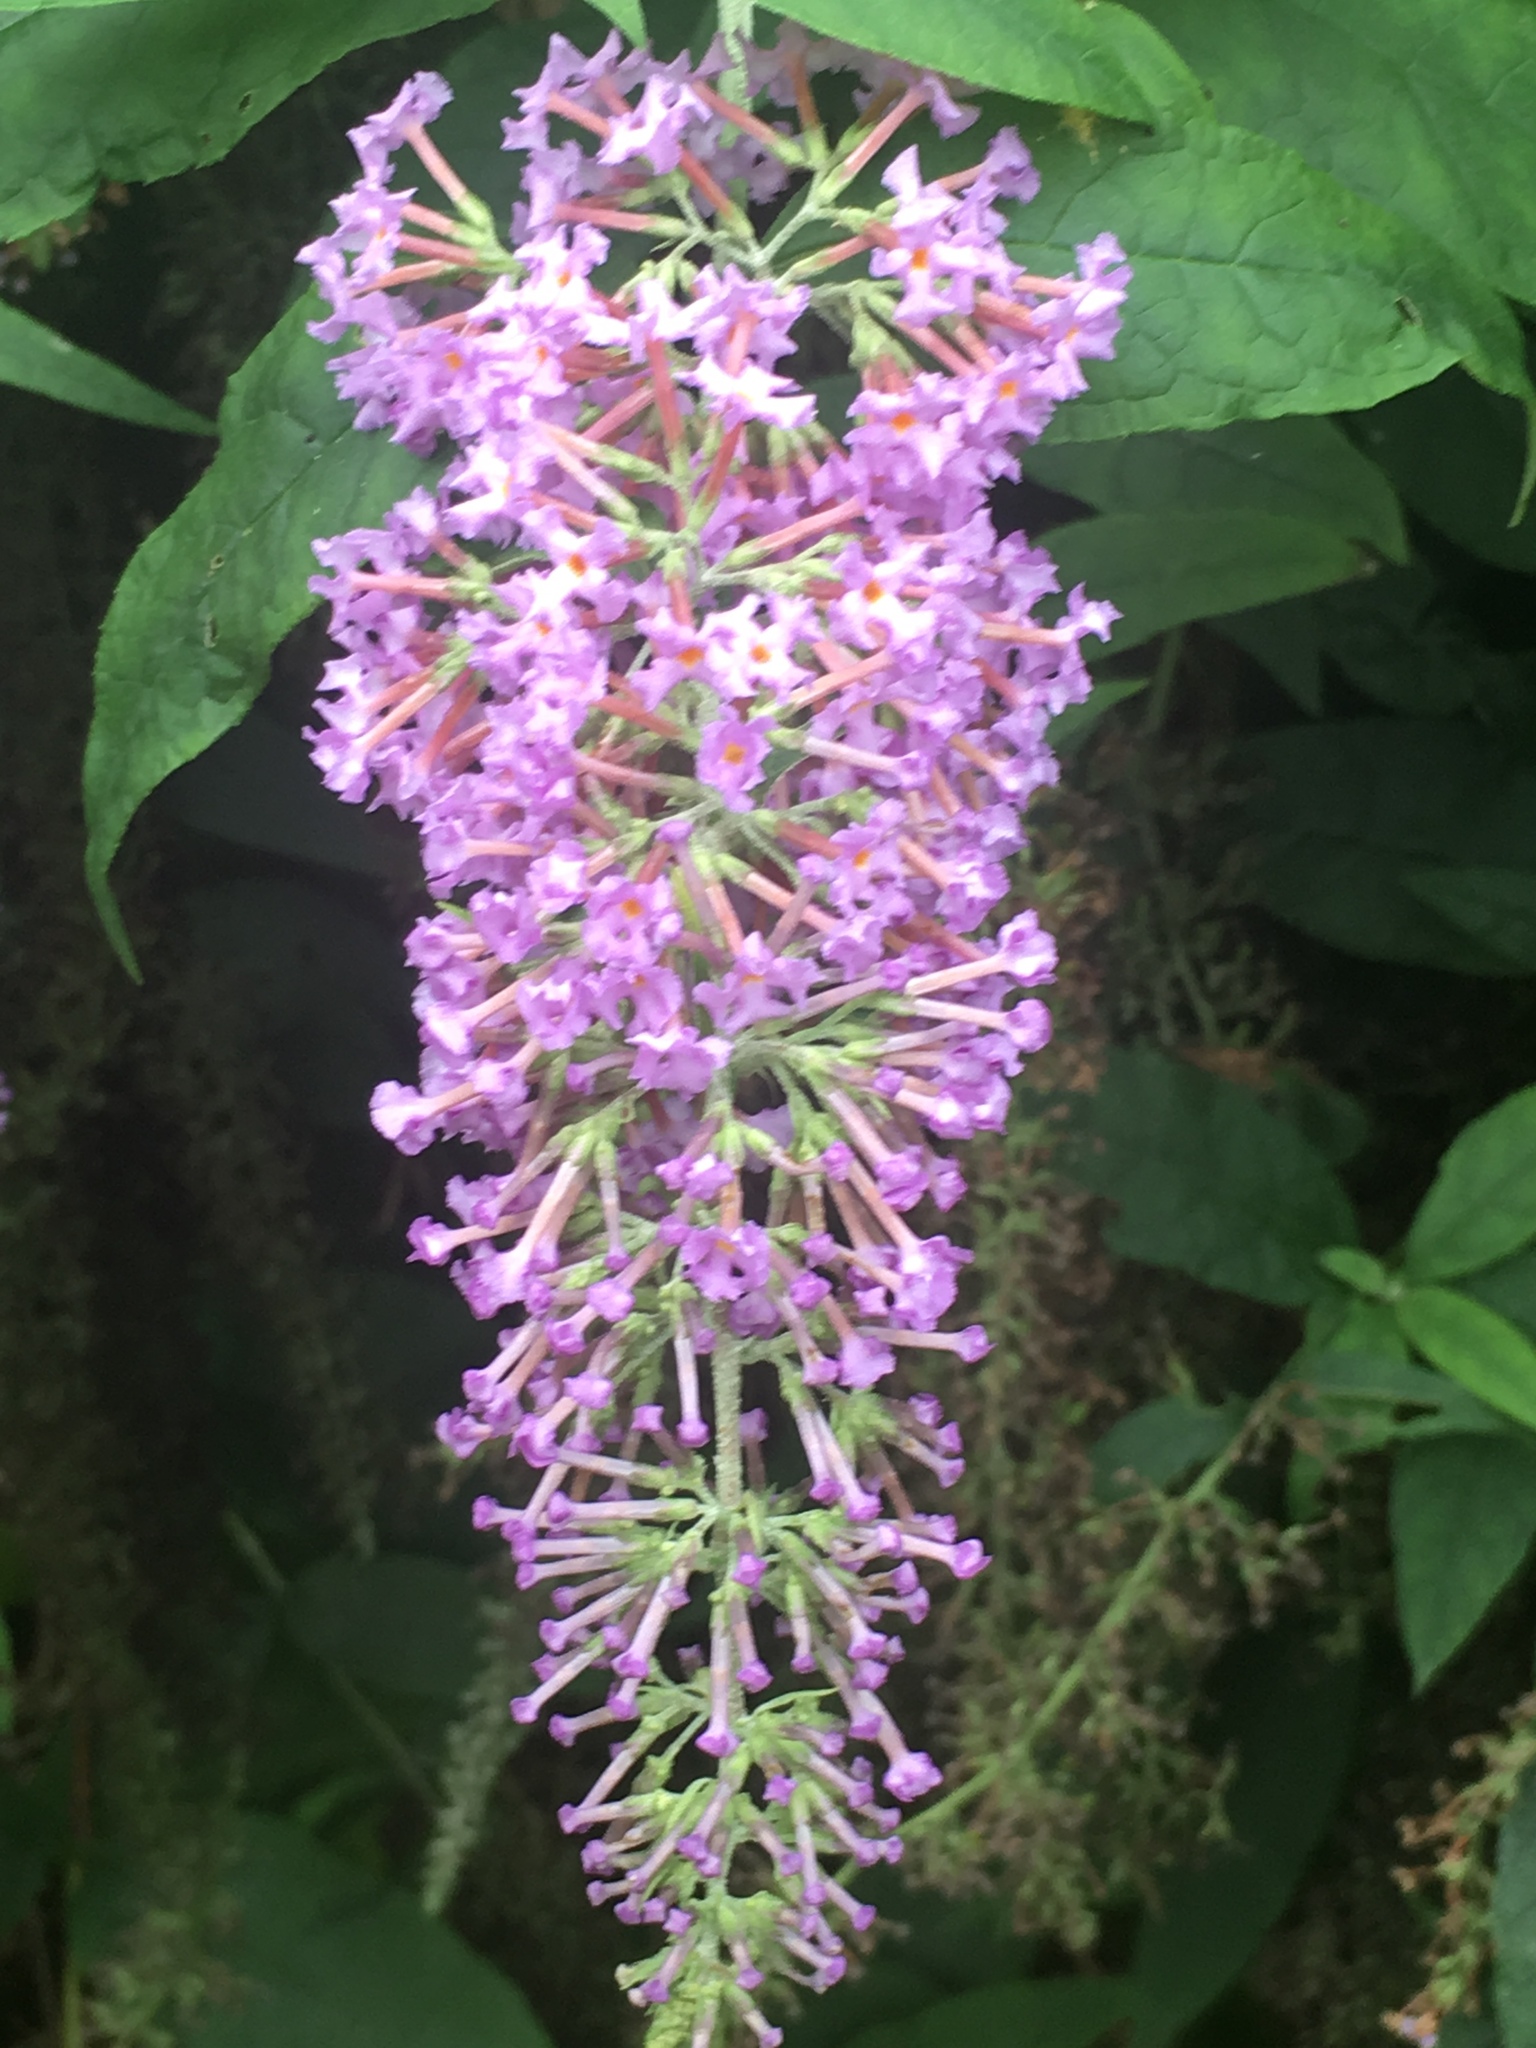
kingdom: Plantae
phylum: Tracheophyta
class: Magnoliopsida
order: Lamiales
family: Scrophulariaceae
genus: Buddleja
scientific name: Buddleja davidii
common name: Butterfly-bush
